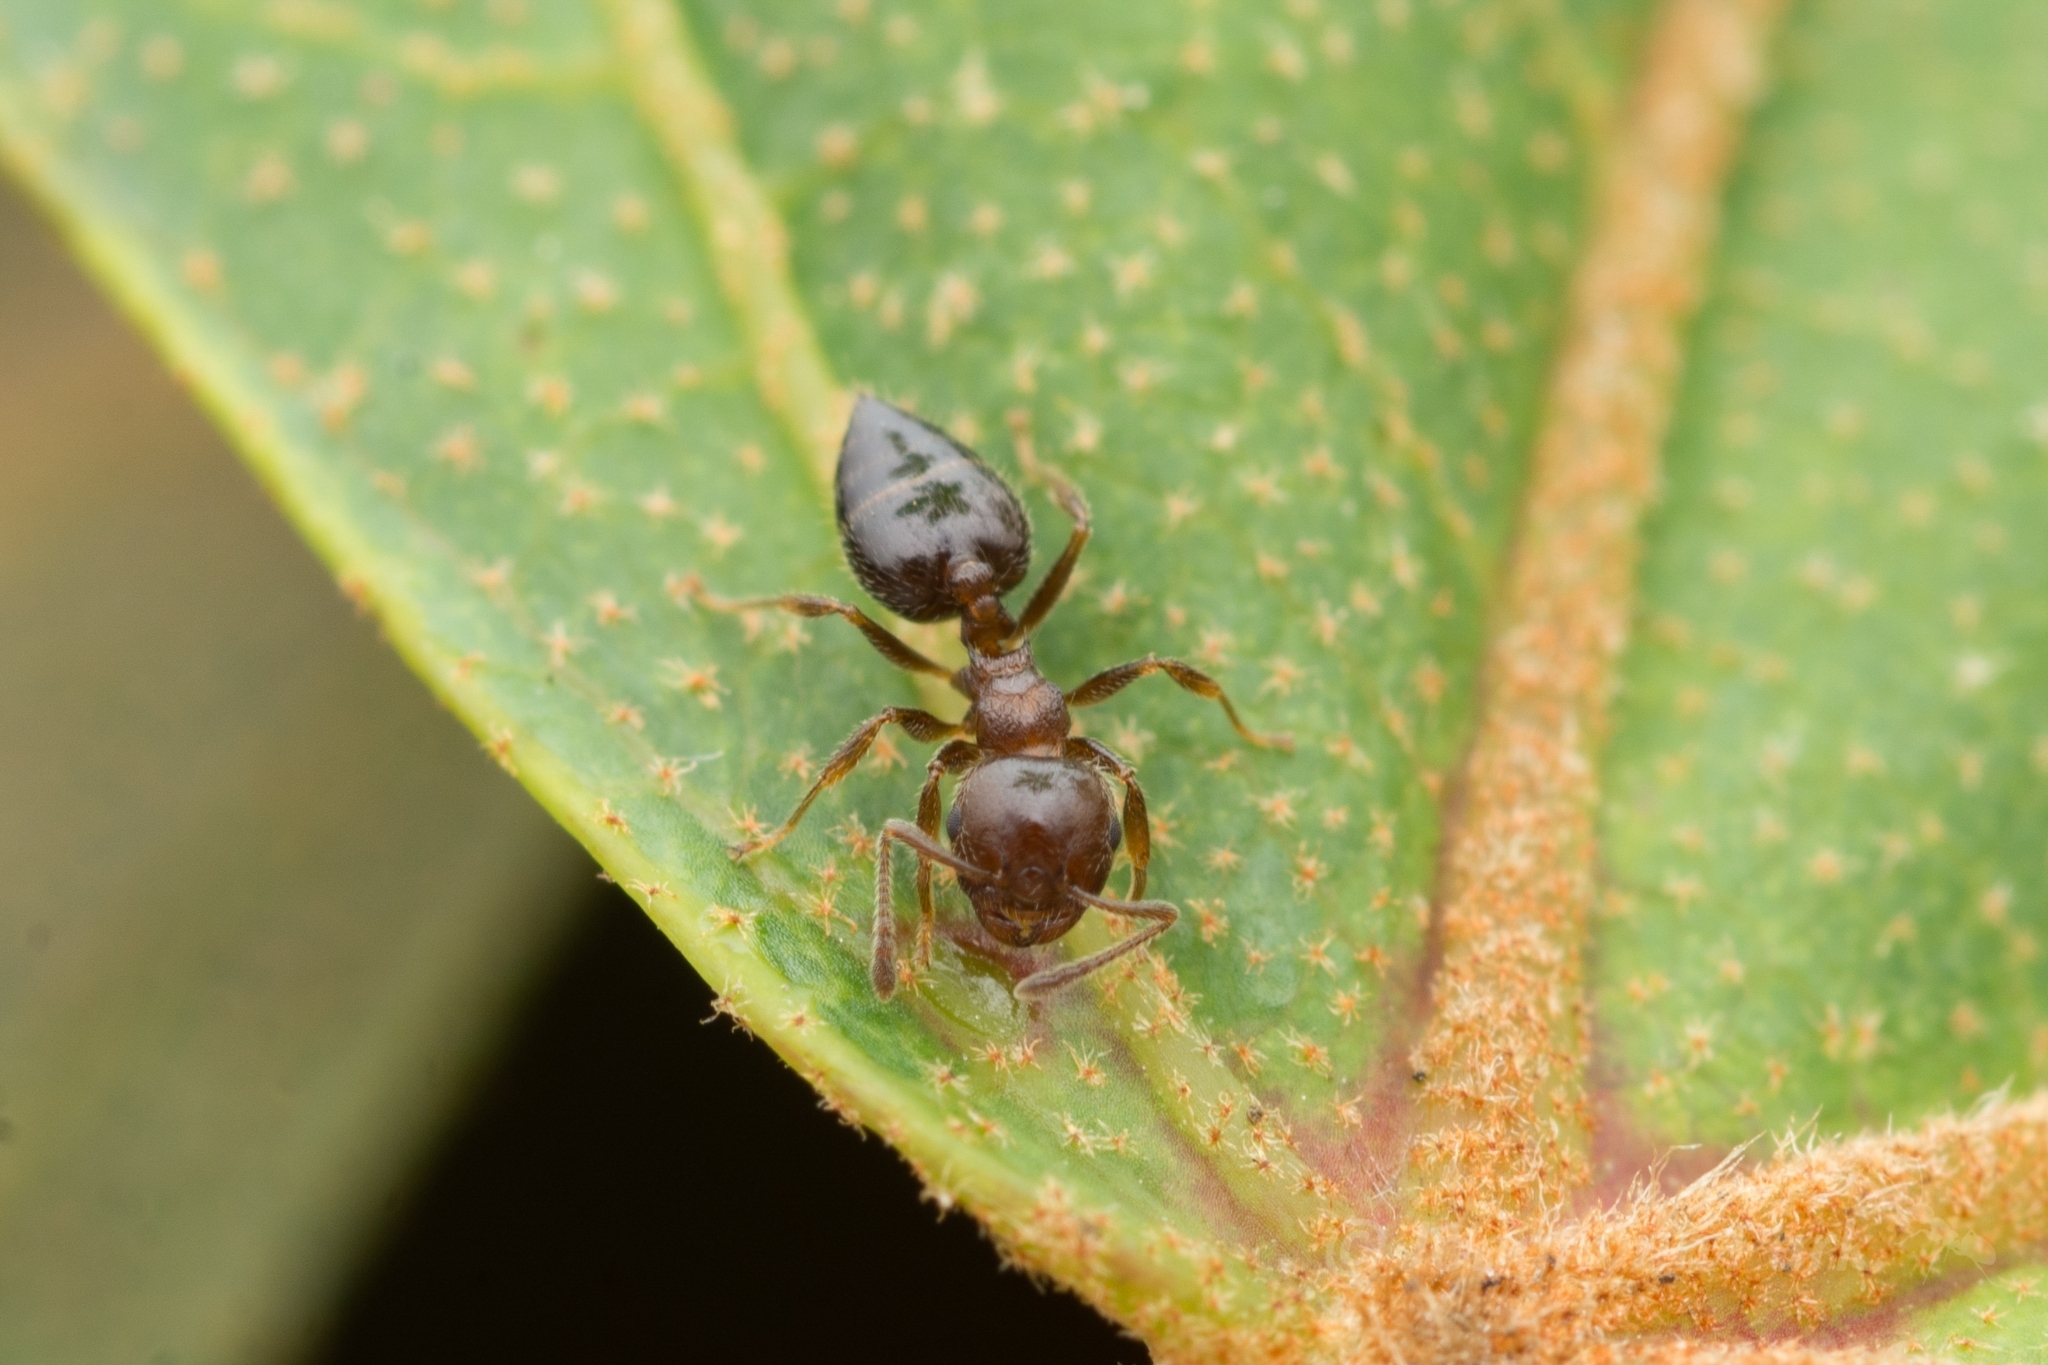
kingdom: Animalia
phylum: Arthropoda
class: Insecta
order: Hymenoptera
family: Formicidae
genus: Crematogaster
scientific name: Crematogaster matsumurai
